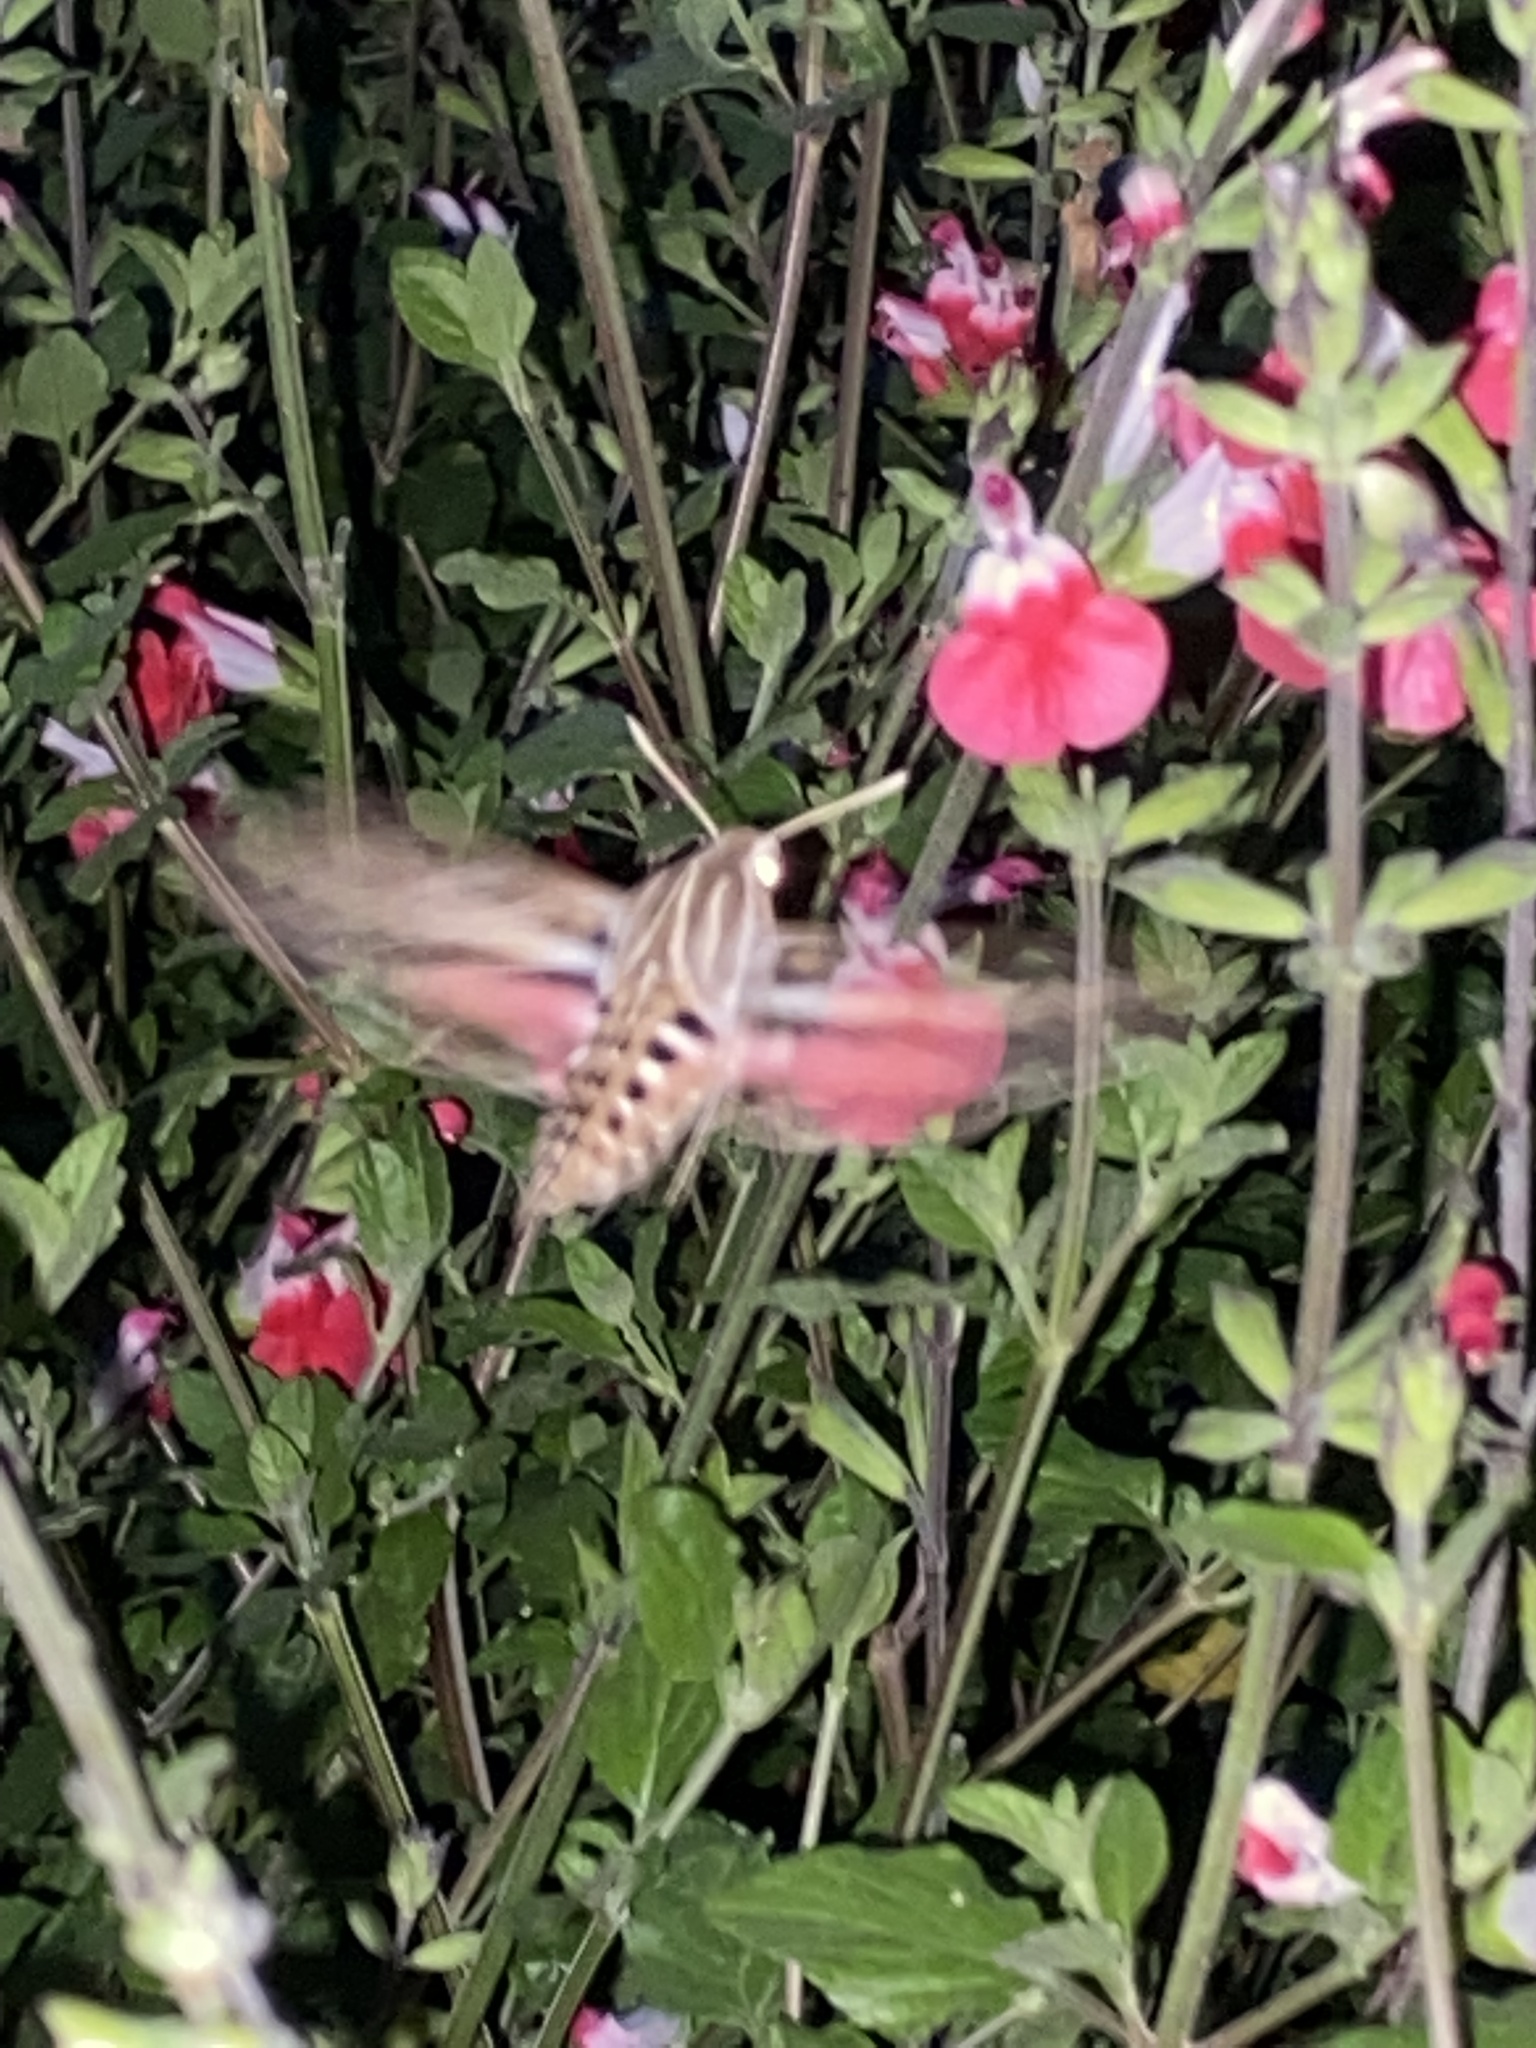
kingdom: Animalia
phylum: Arthropoda
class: Insecta
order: Lepidoptera
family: Sphingidae
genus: Hyles
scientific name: Hyles lineata
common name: White-lined sphinx
